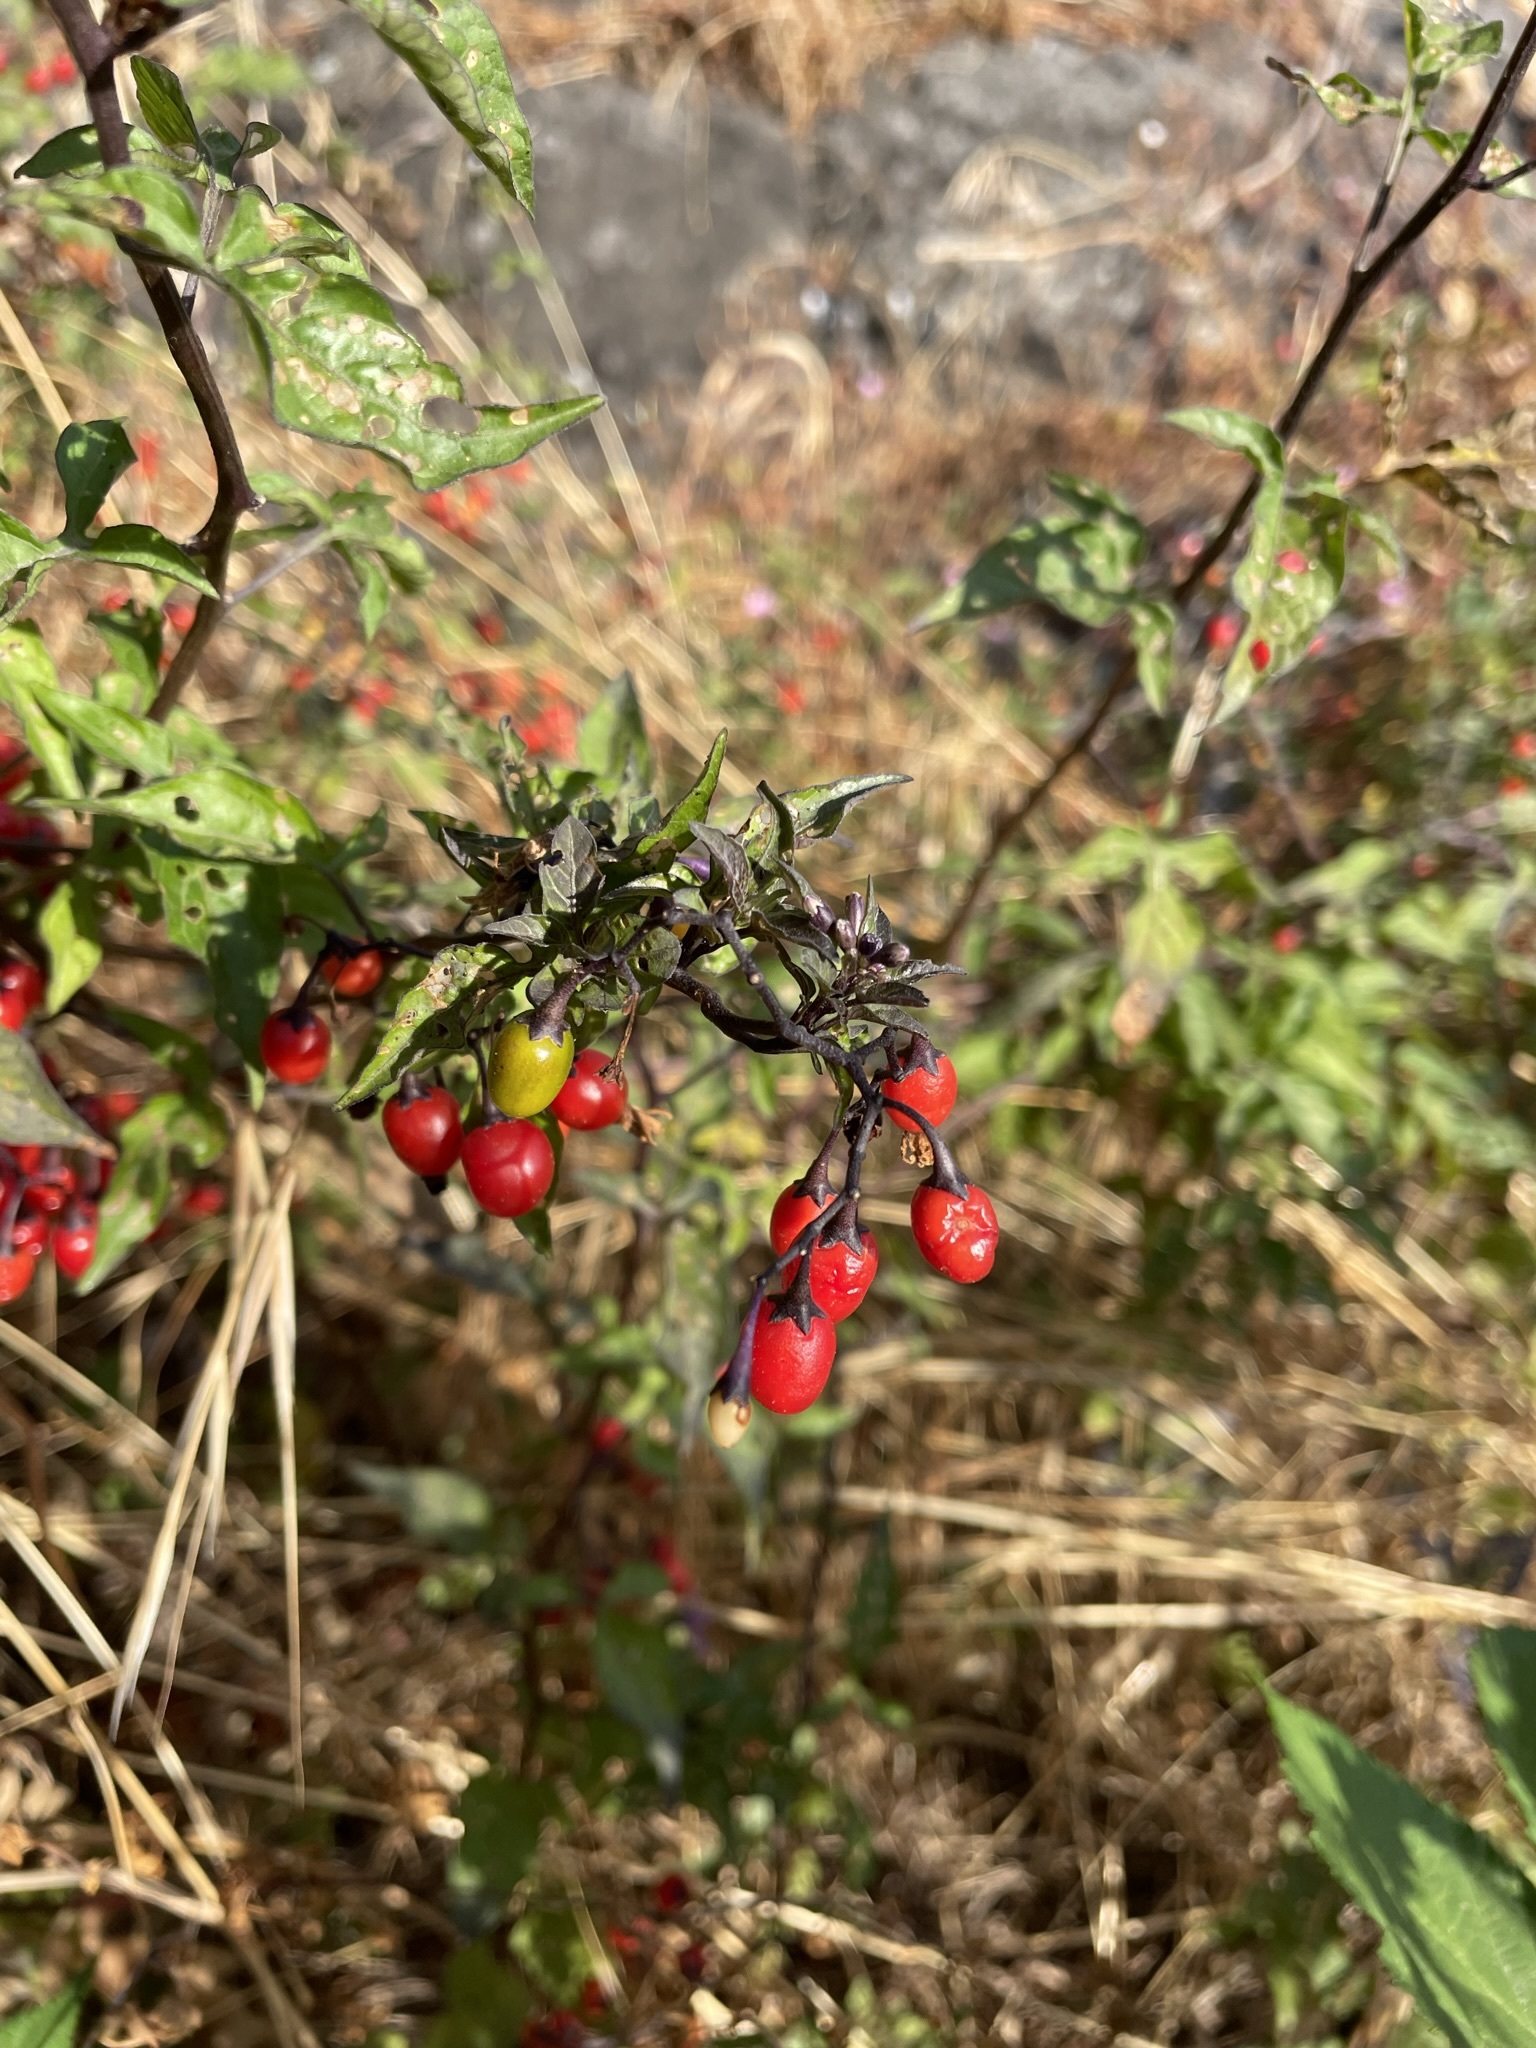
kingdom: Plantae
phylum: Tracheophyta
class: Magnoliopsida
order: Solanales
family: Solanaceae
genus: Solanum
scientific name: Solanum dulcamara
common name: Climbing nightshade
